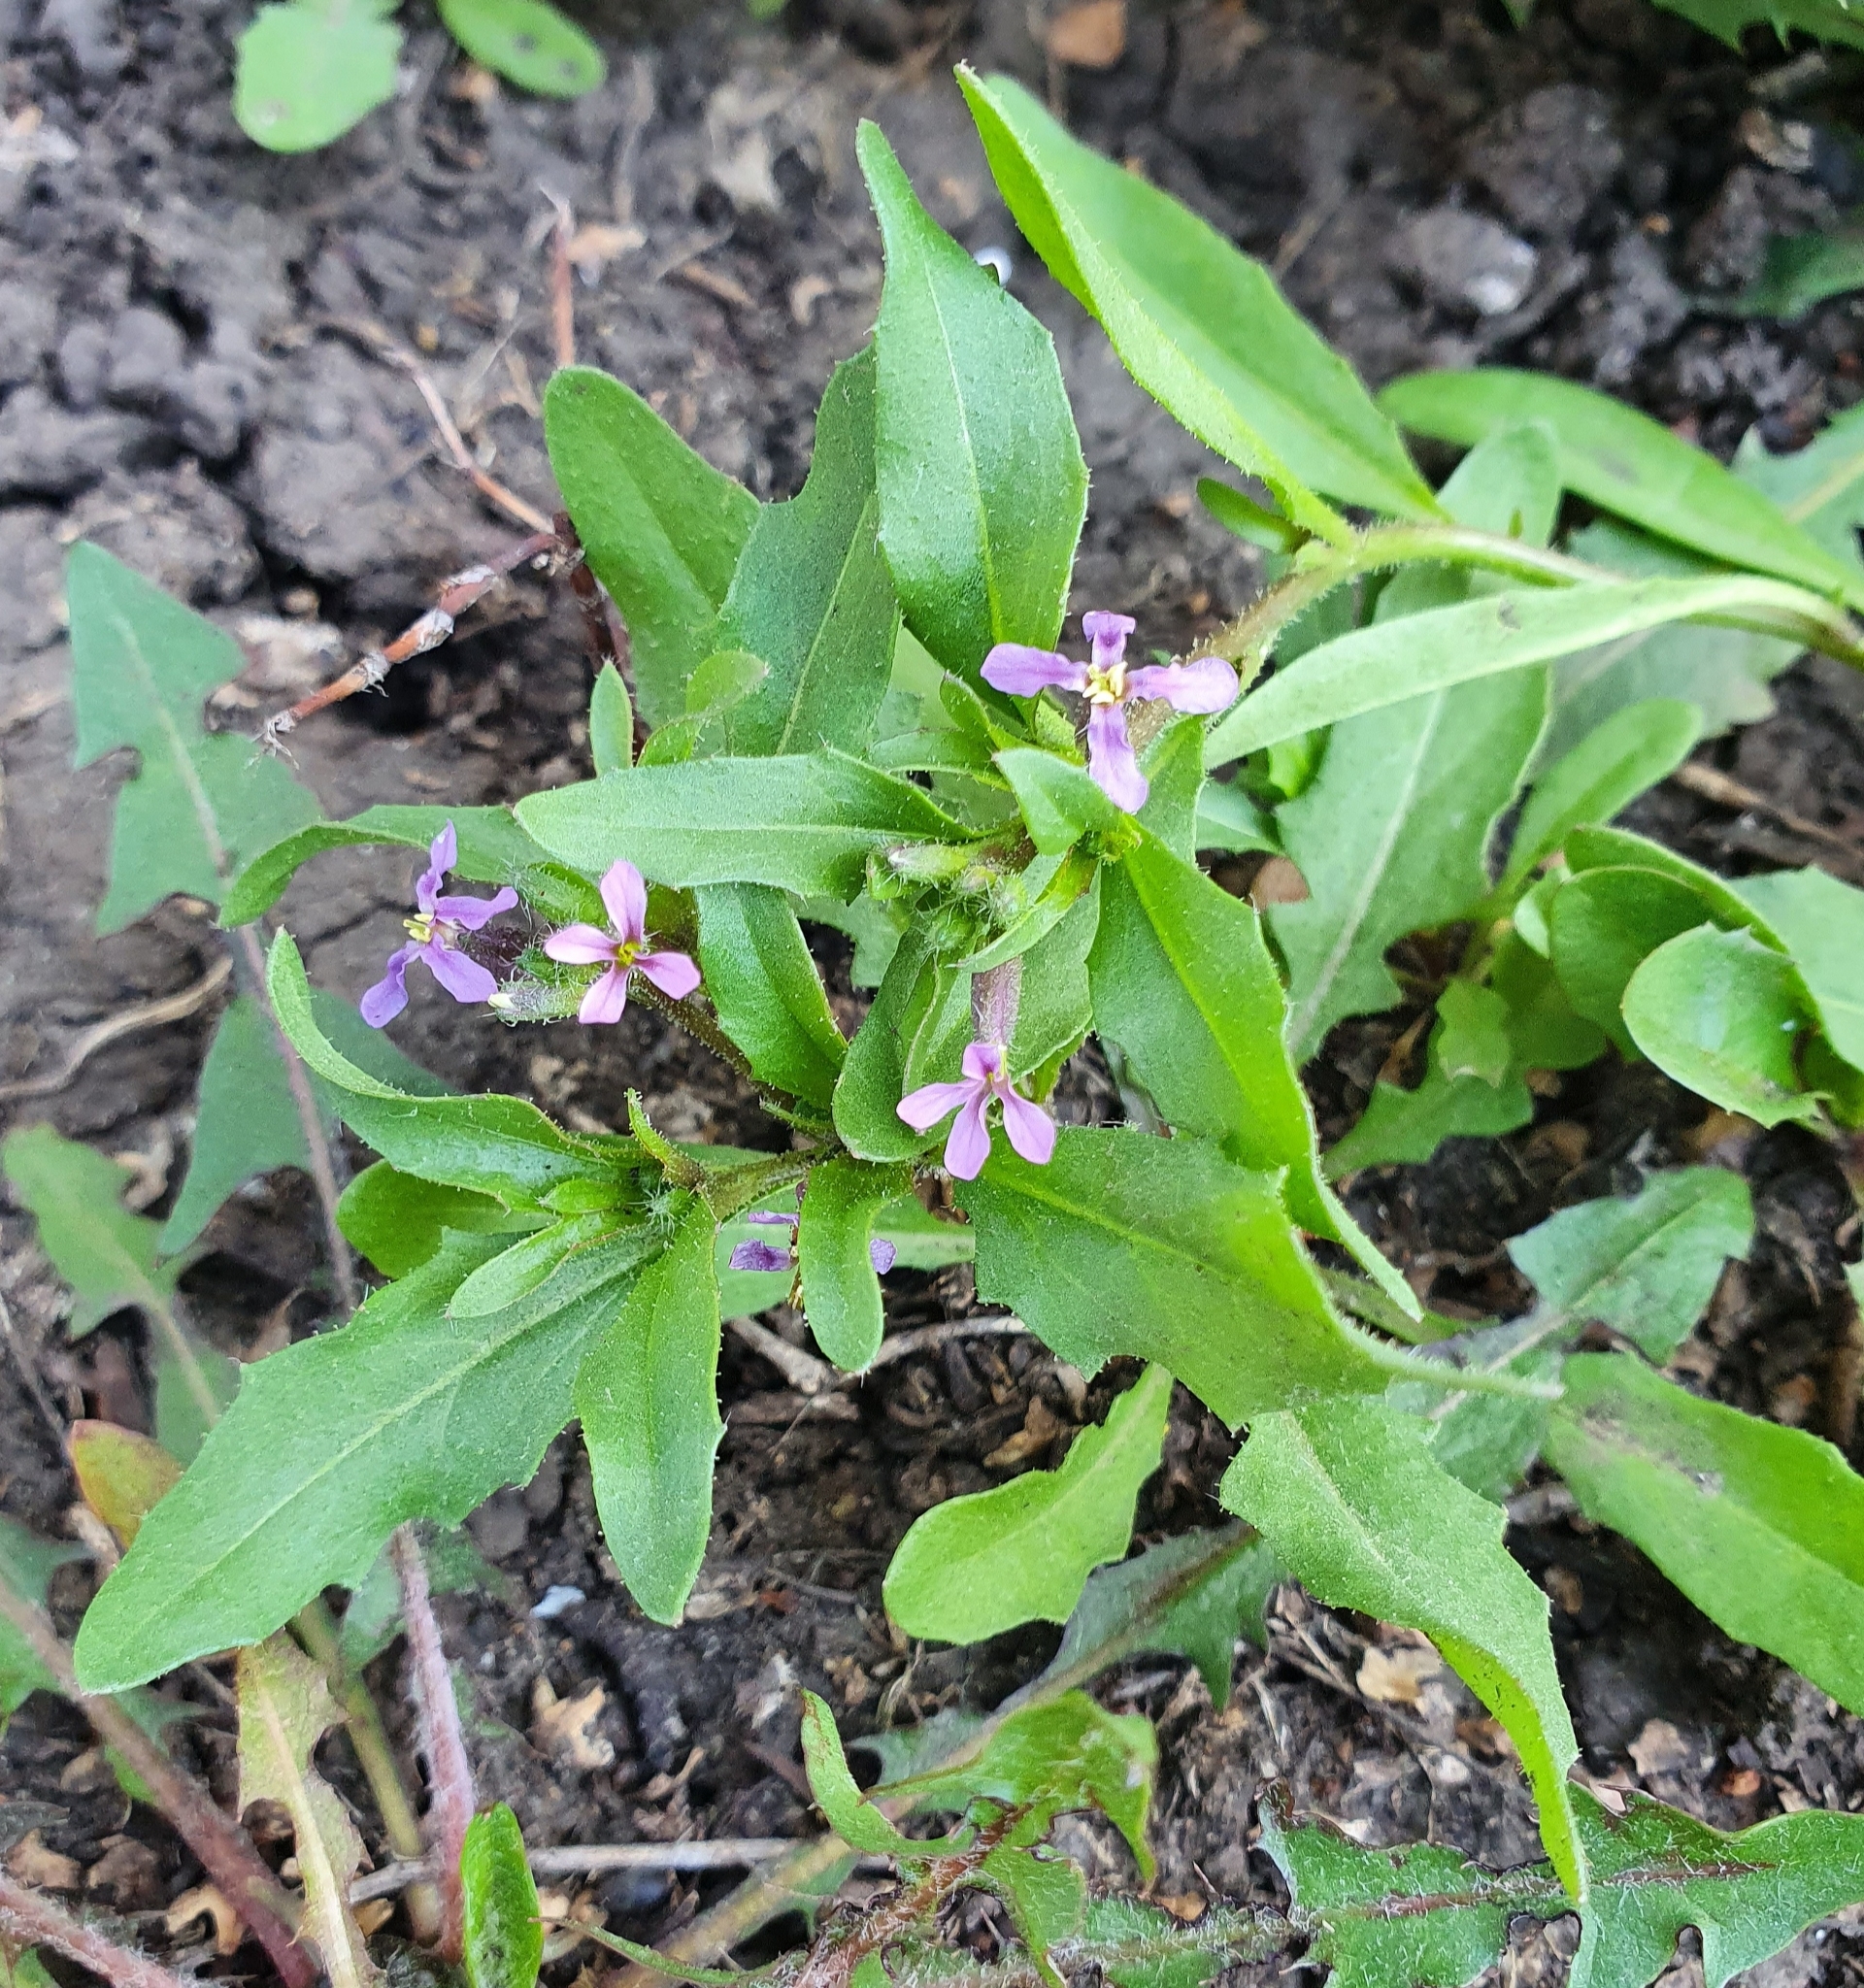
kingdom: Plantae
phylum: Tracheophyta
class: Magnoliopsida
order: Brassicales
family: Brassicaceae
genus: Chorispora
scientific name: Chorispora tenella
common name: Crossflower
